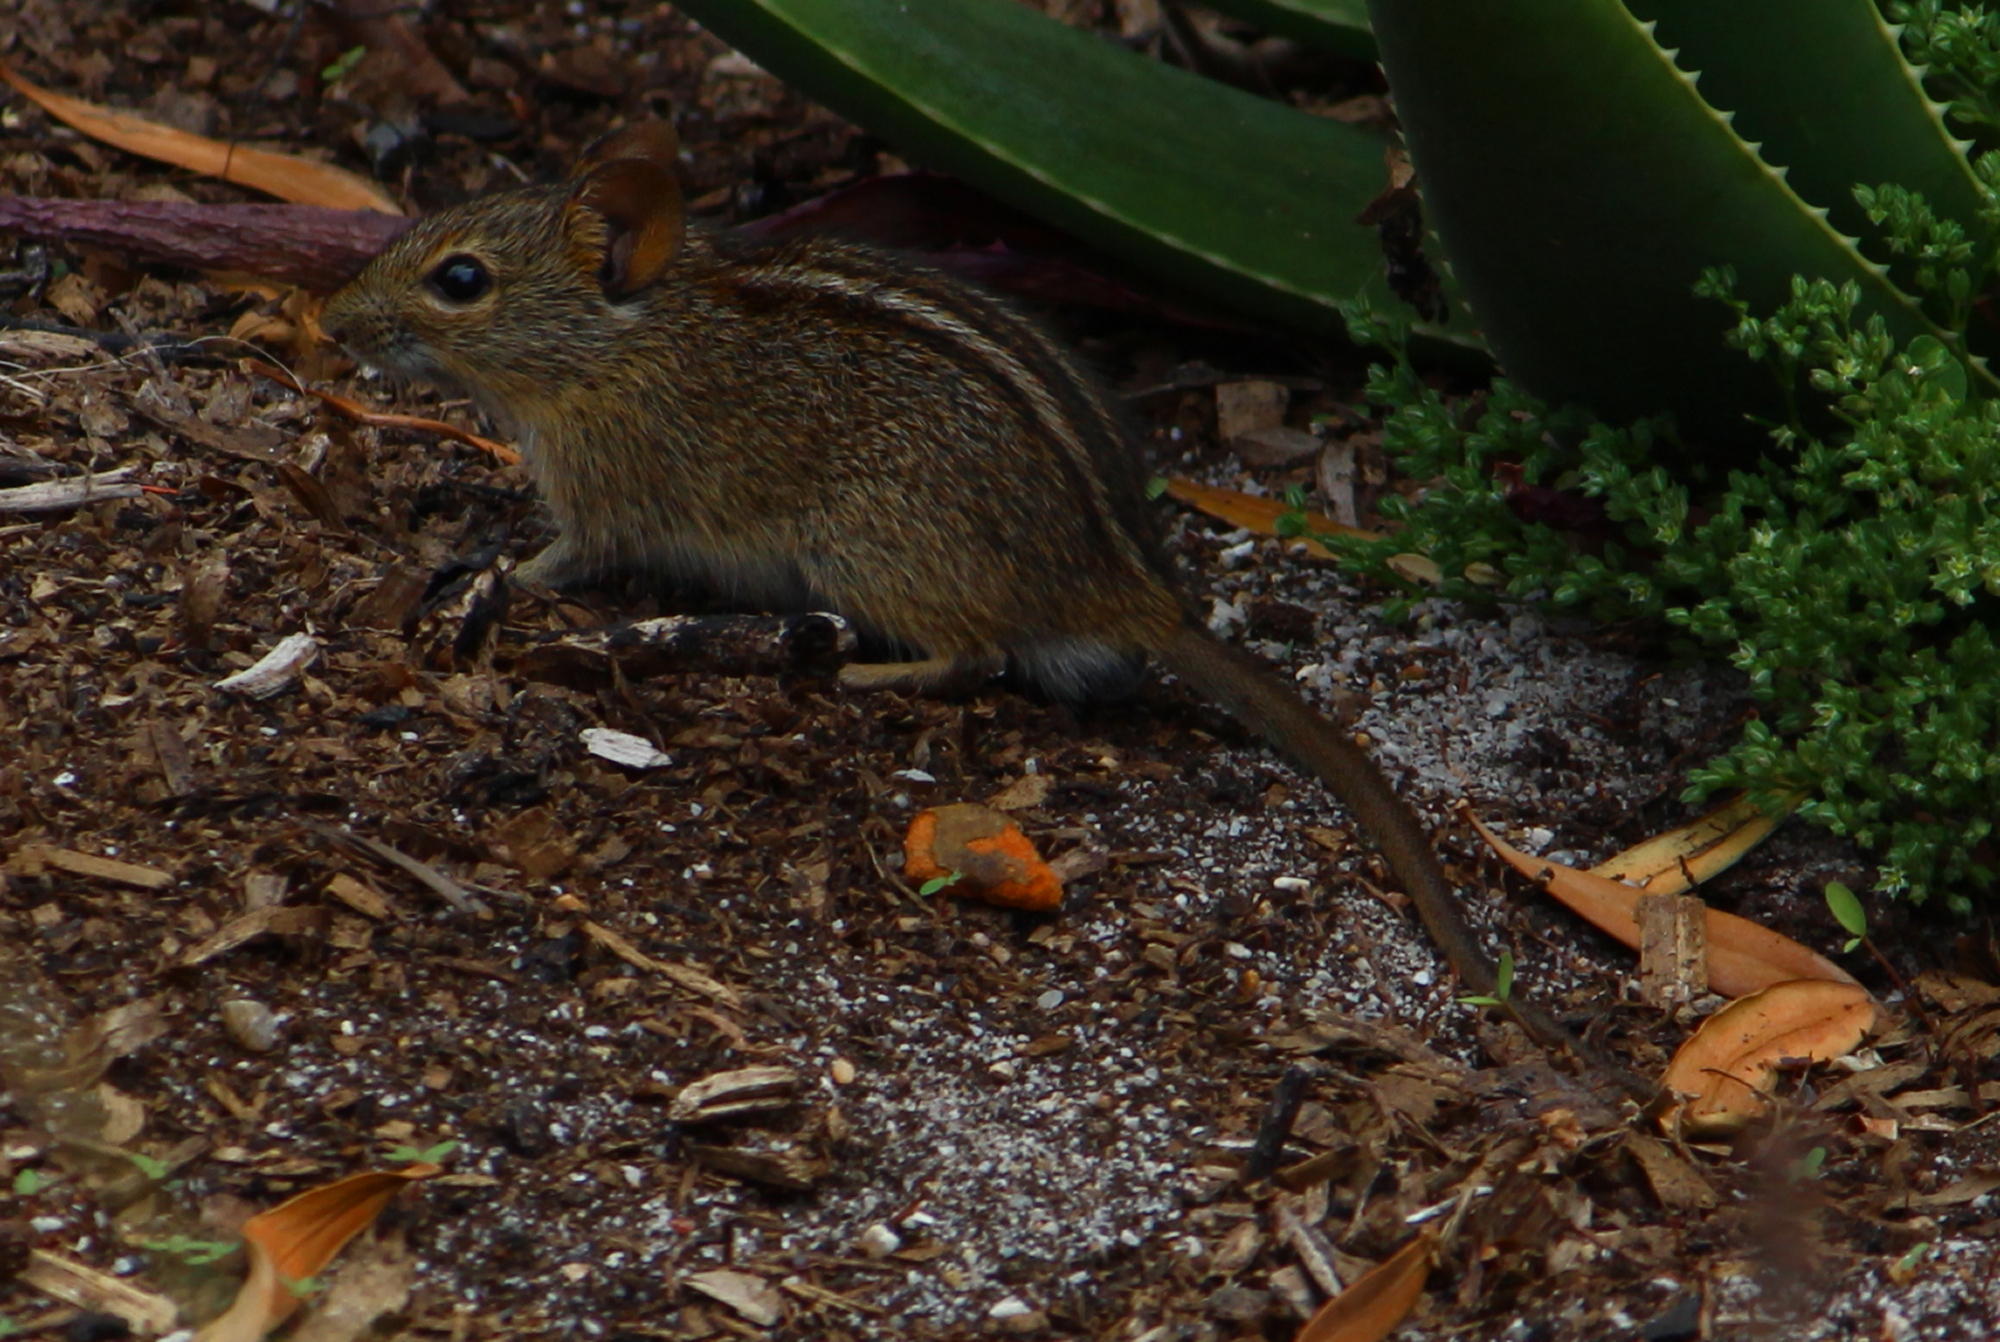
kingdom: Animalia
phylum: Chordata
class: Mammalia
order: Rodentia
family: Muridae
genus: Rhabdomys
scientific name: Rhabdomys pumilio
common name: Xeric four-striped grass rat
